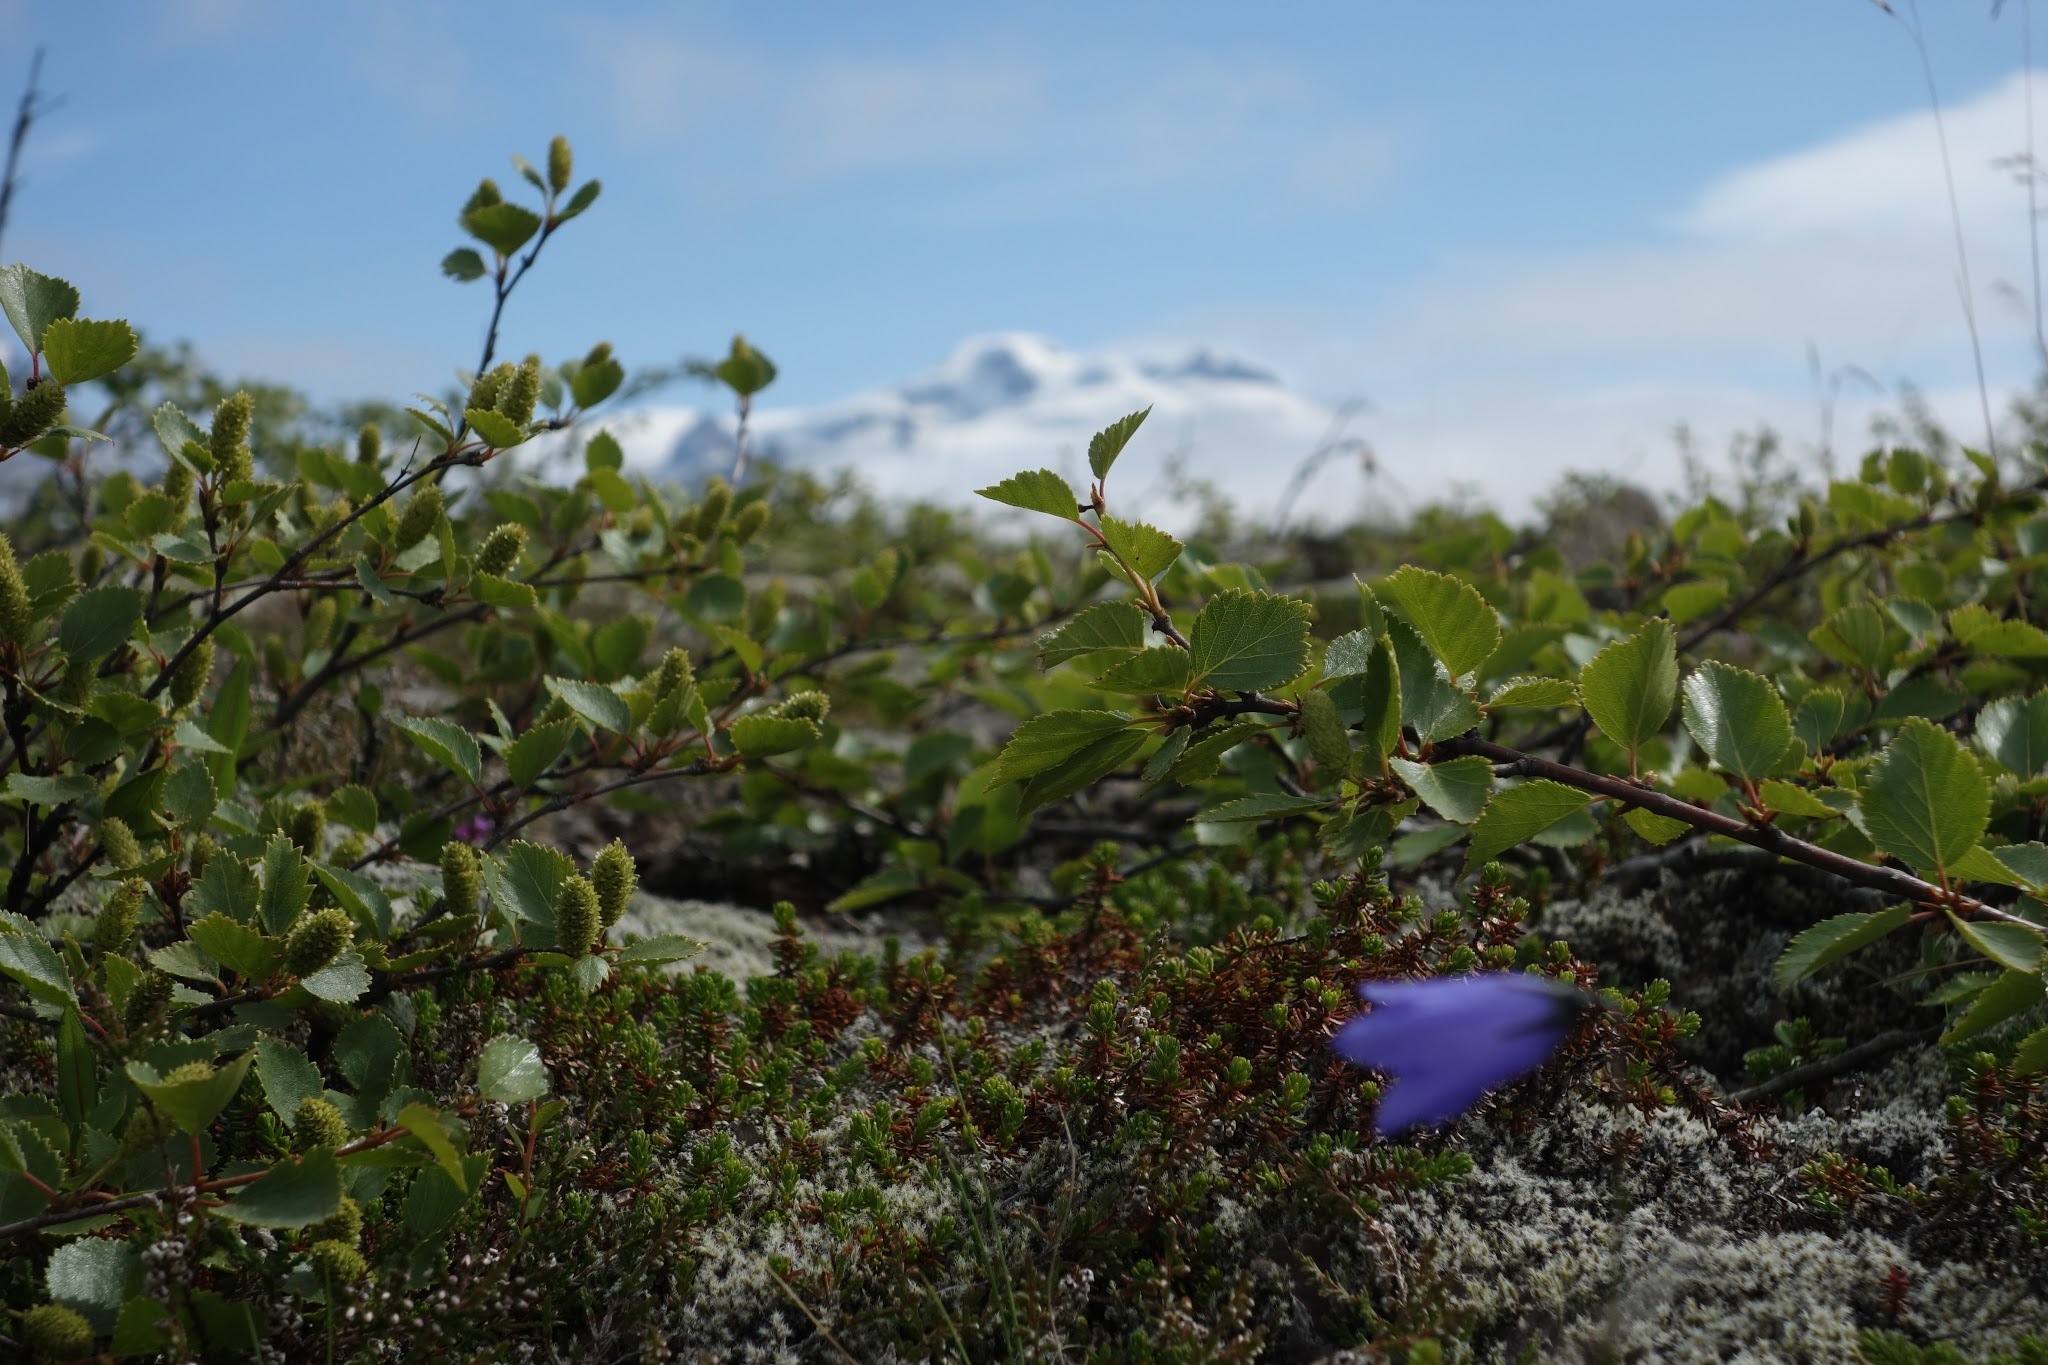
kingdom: Plantae
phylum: Tracheophyta
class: Magnoliopsida
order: Fagales
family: Betulaceae
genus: Betula
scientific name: Betula pubescens
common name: Downy birch
